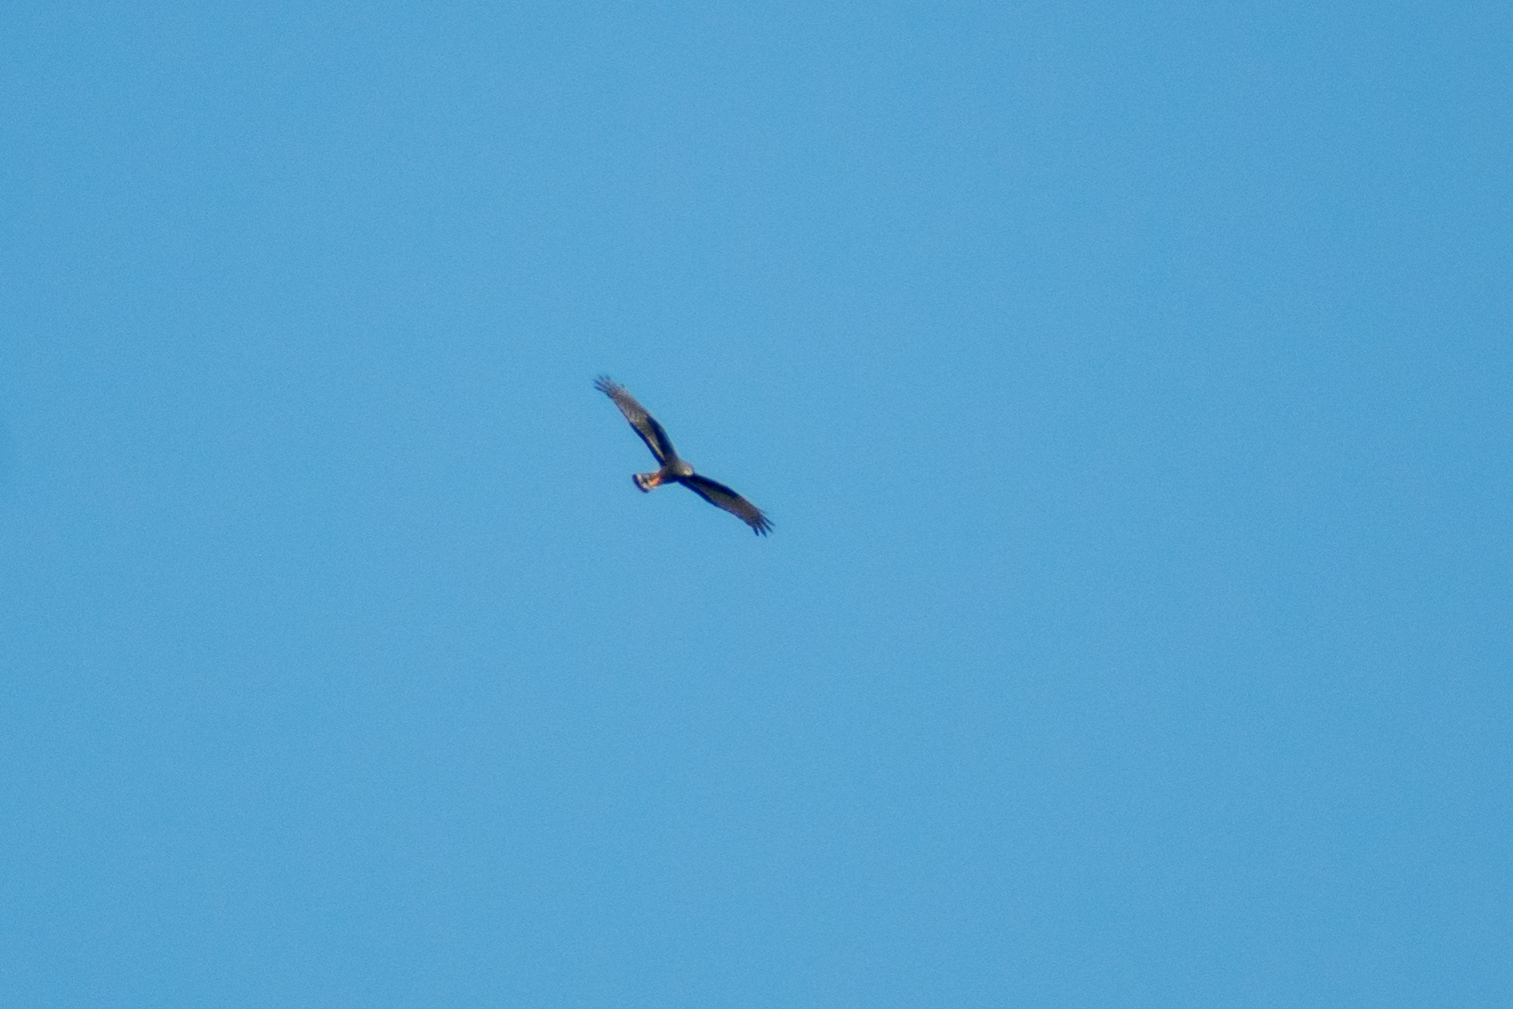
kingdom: Animalia
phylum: Chordata
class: Aves
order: Accipitriformes
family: Accipitridae
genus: Circus
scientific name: Circus buffoni
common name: Long-winged harrier
